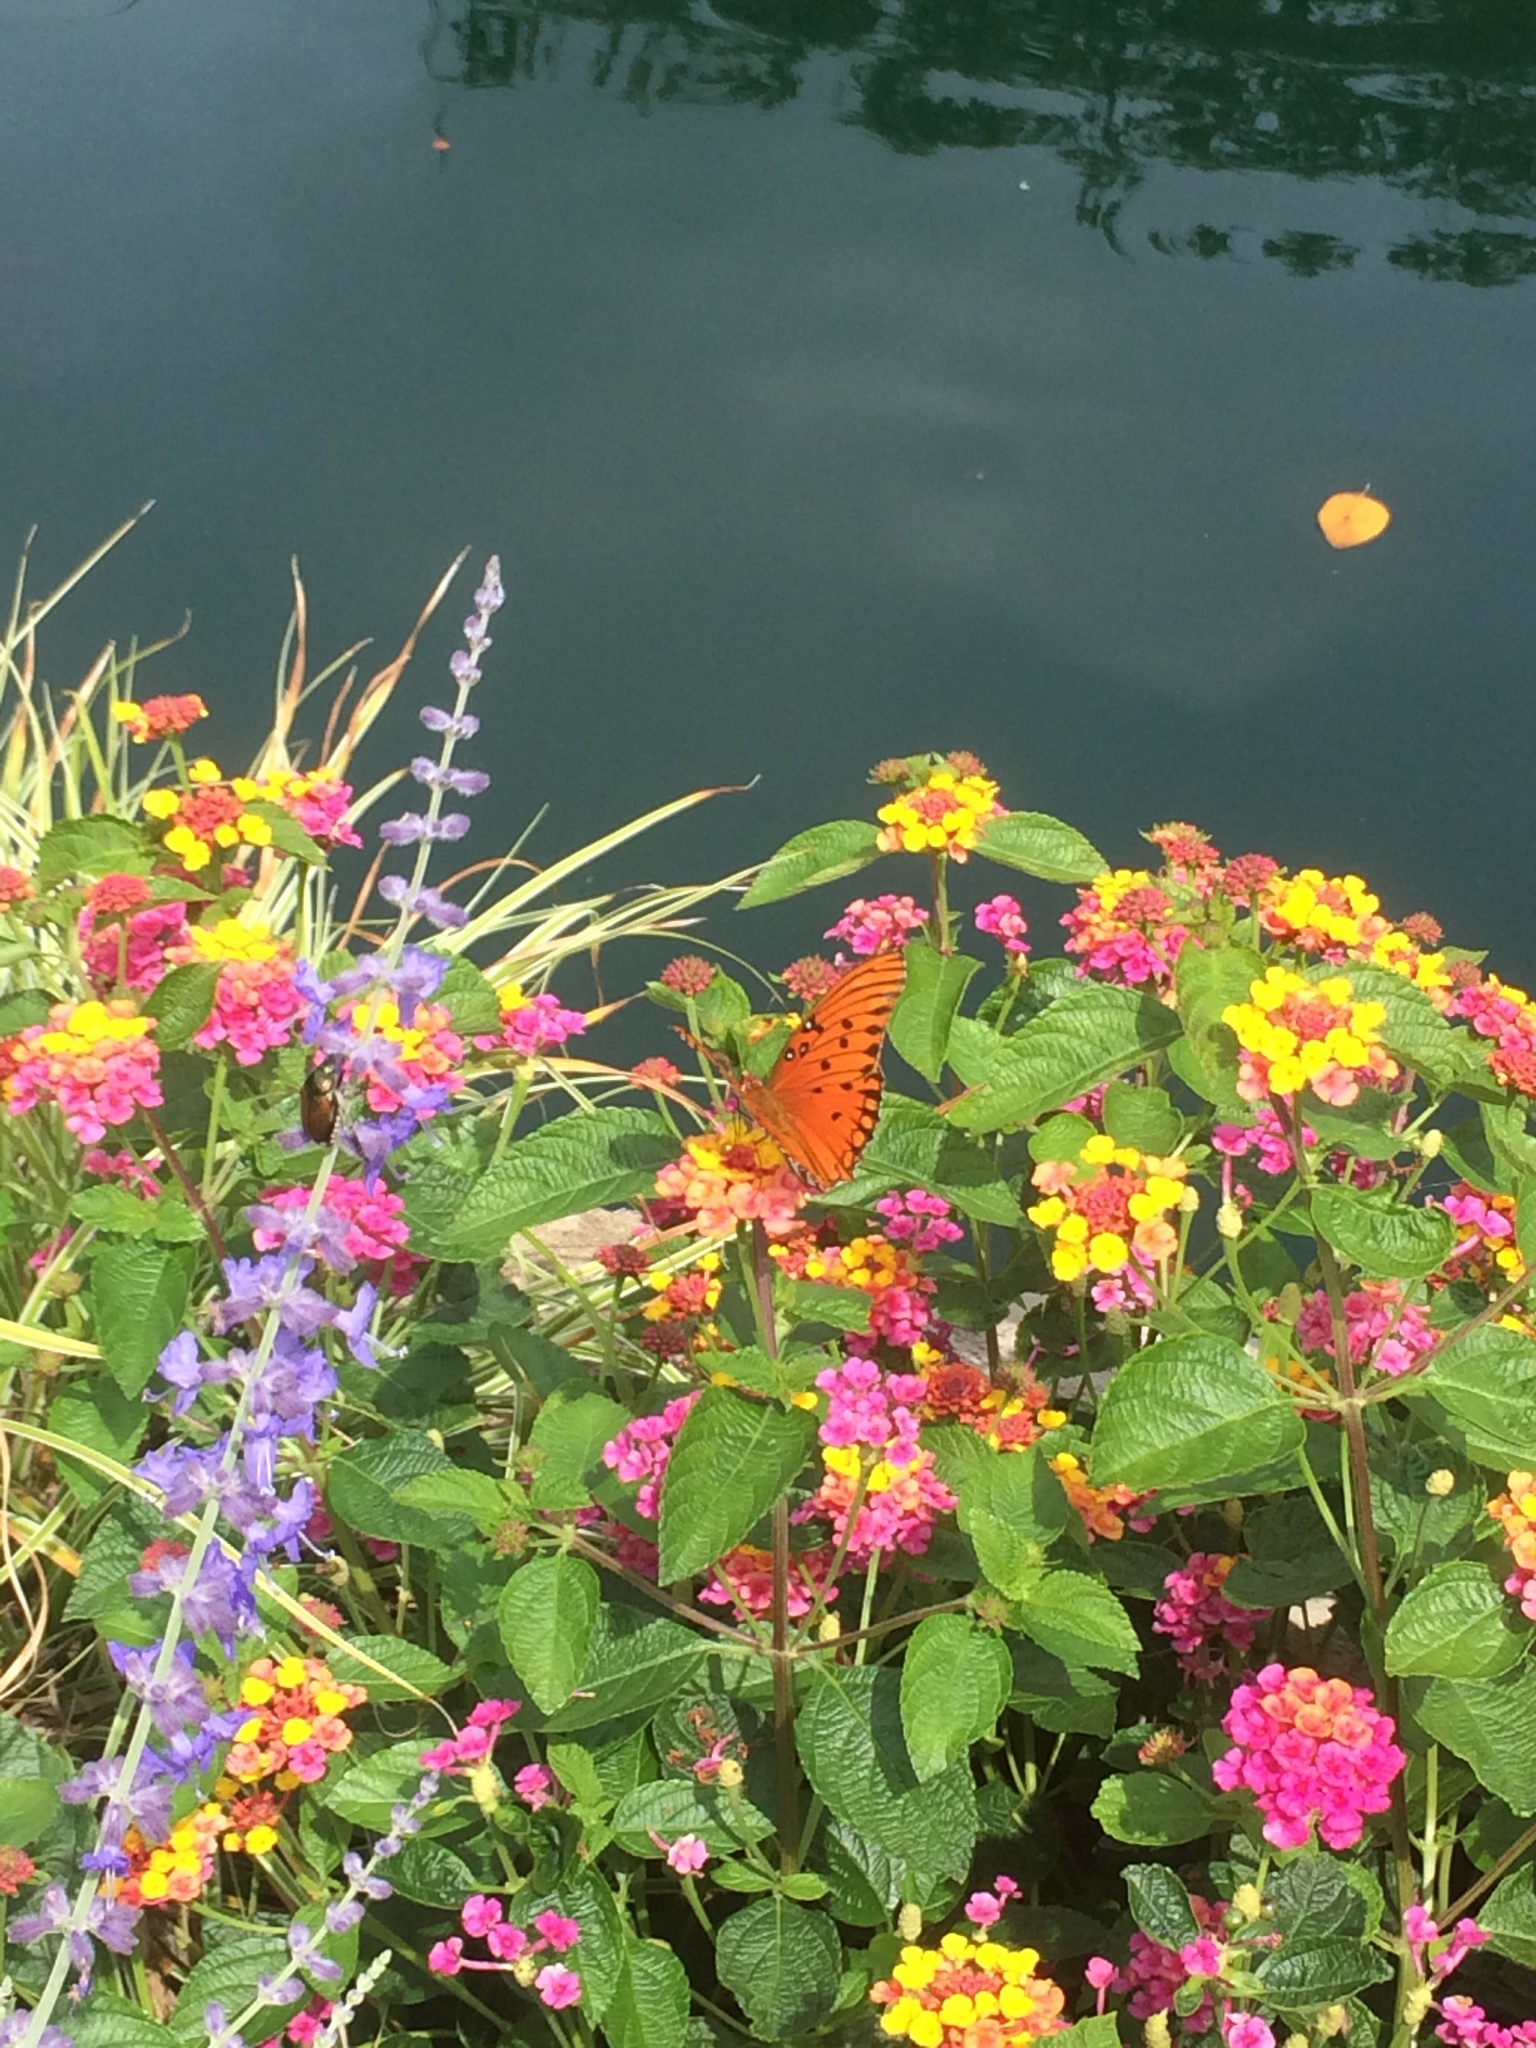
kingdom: Animalia
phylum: Arthropoda
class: Insecta
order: Lepidoptera
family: Nymphalidae
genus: Dione
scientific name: Dione vanillae
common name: Gulf fritillary
